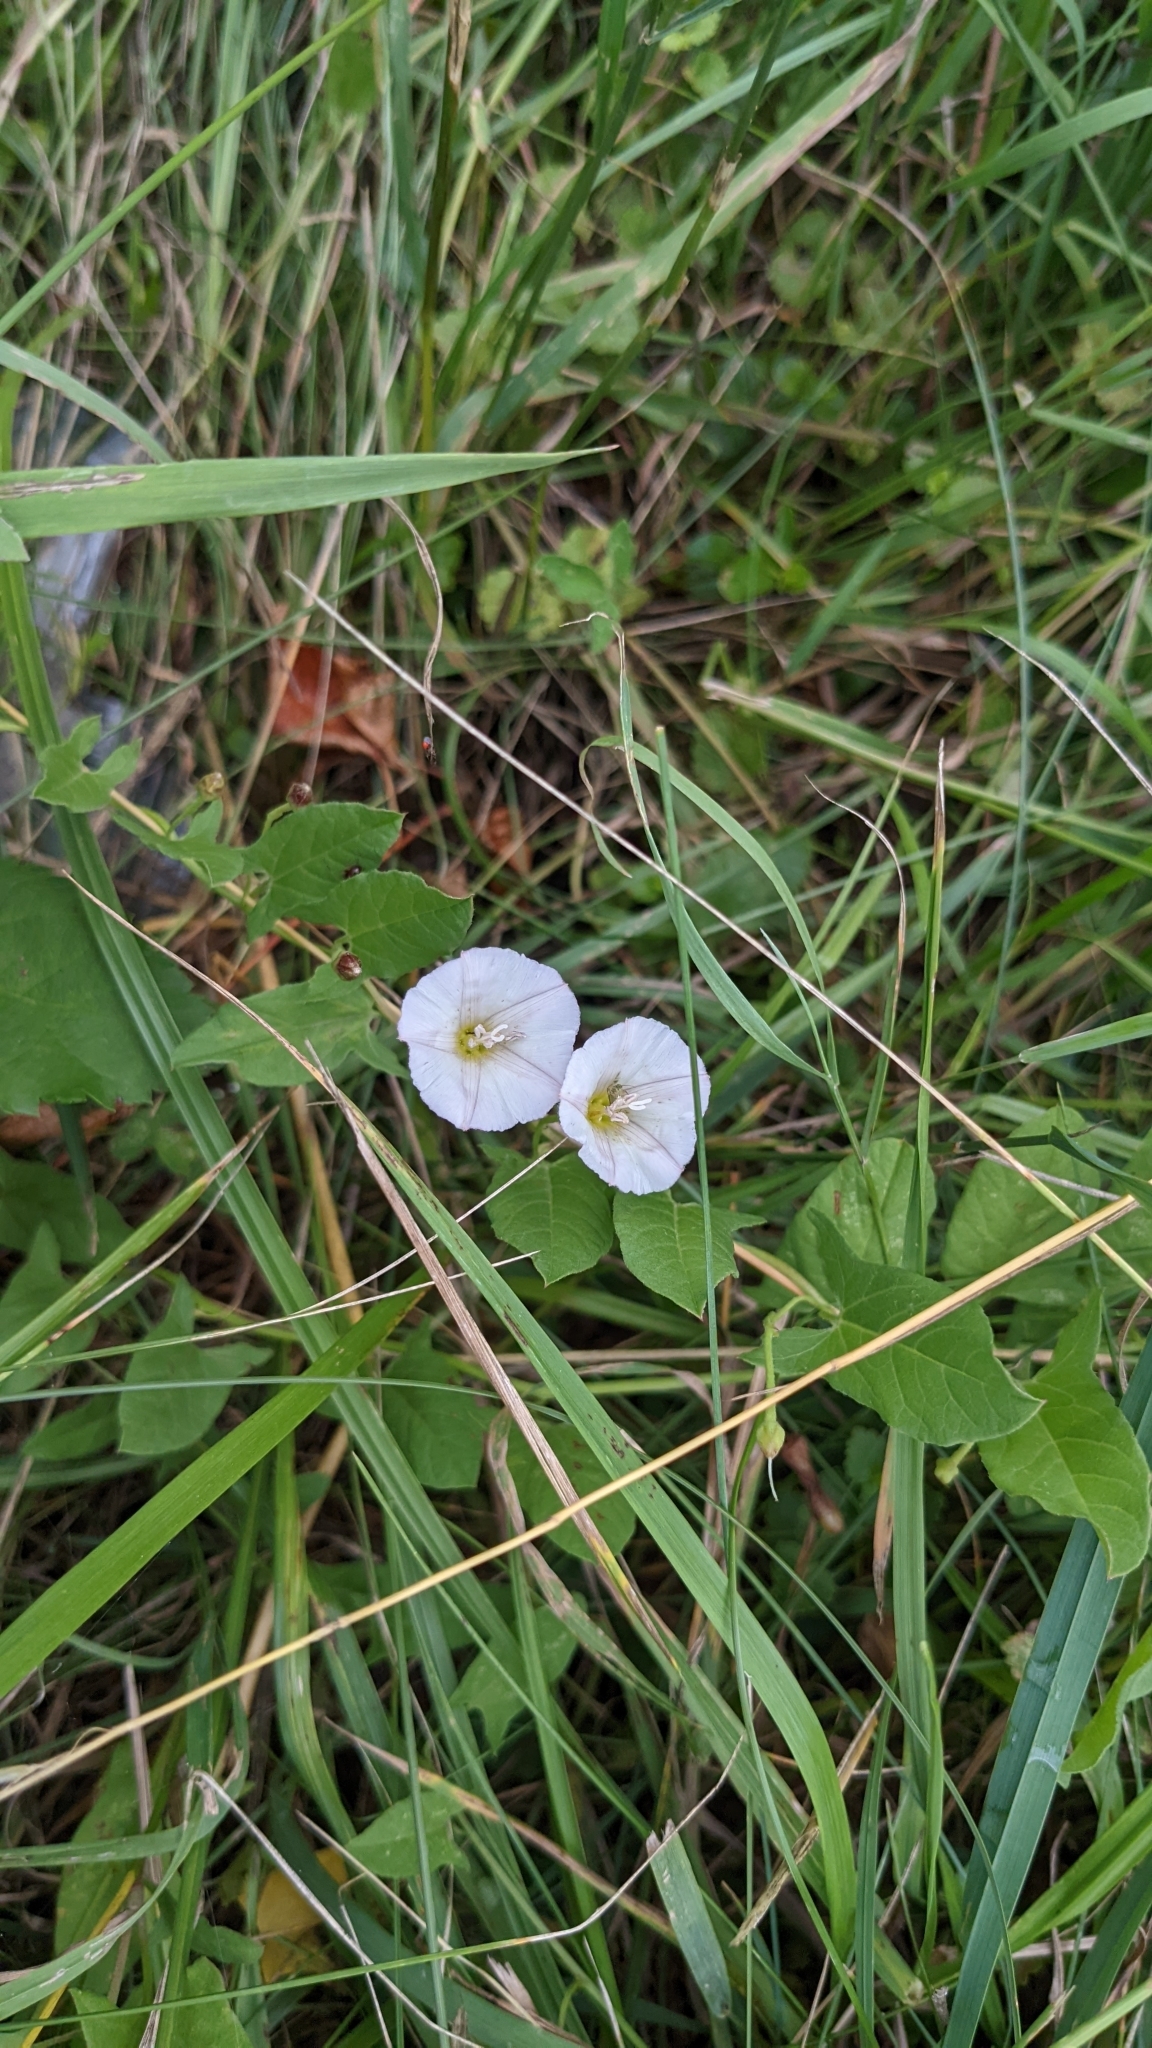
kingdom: Plantae
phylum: Tracheophyta
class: Magnoliopsida
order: Solanales
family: Convolvulaceae
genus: Convolvulus
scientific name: Convolvulus arvensis
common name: Field bindweed
